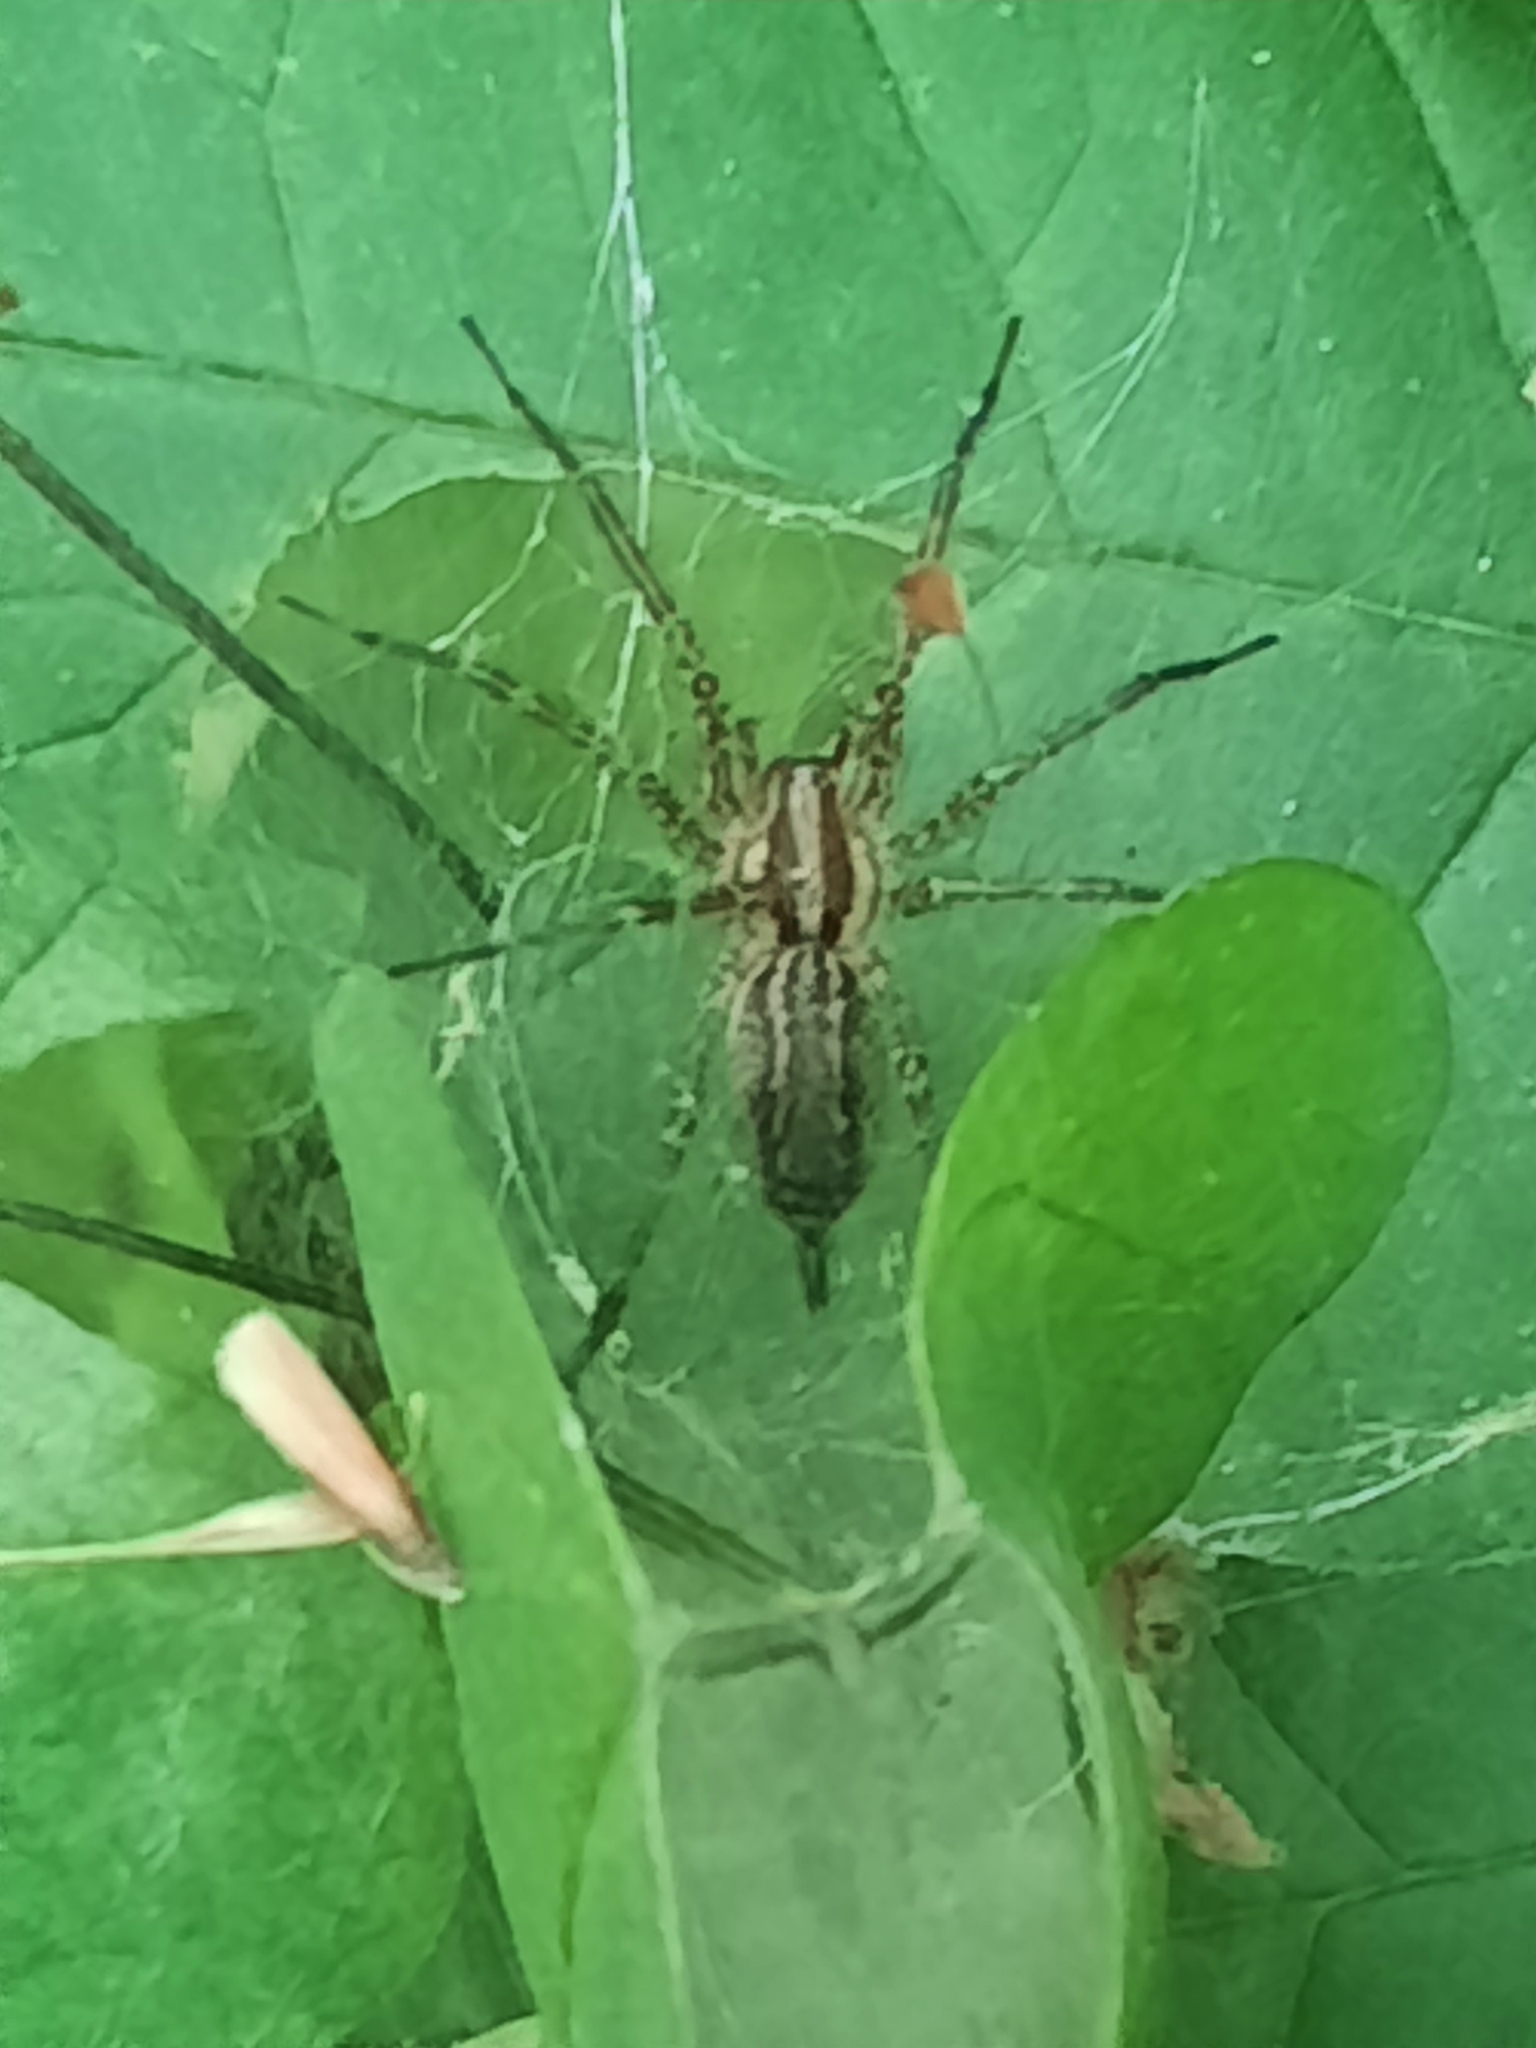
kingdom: Animalia
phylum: Arthropoda
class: Arachnida
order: Araneae
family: Agelenidae
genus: Agelenopsis
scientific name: Agelenopsis
